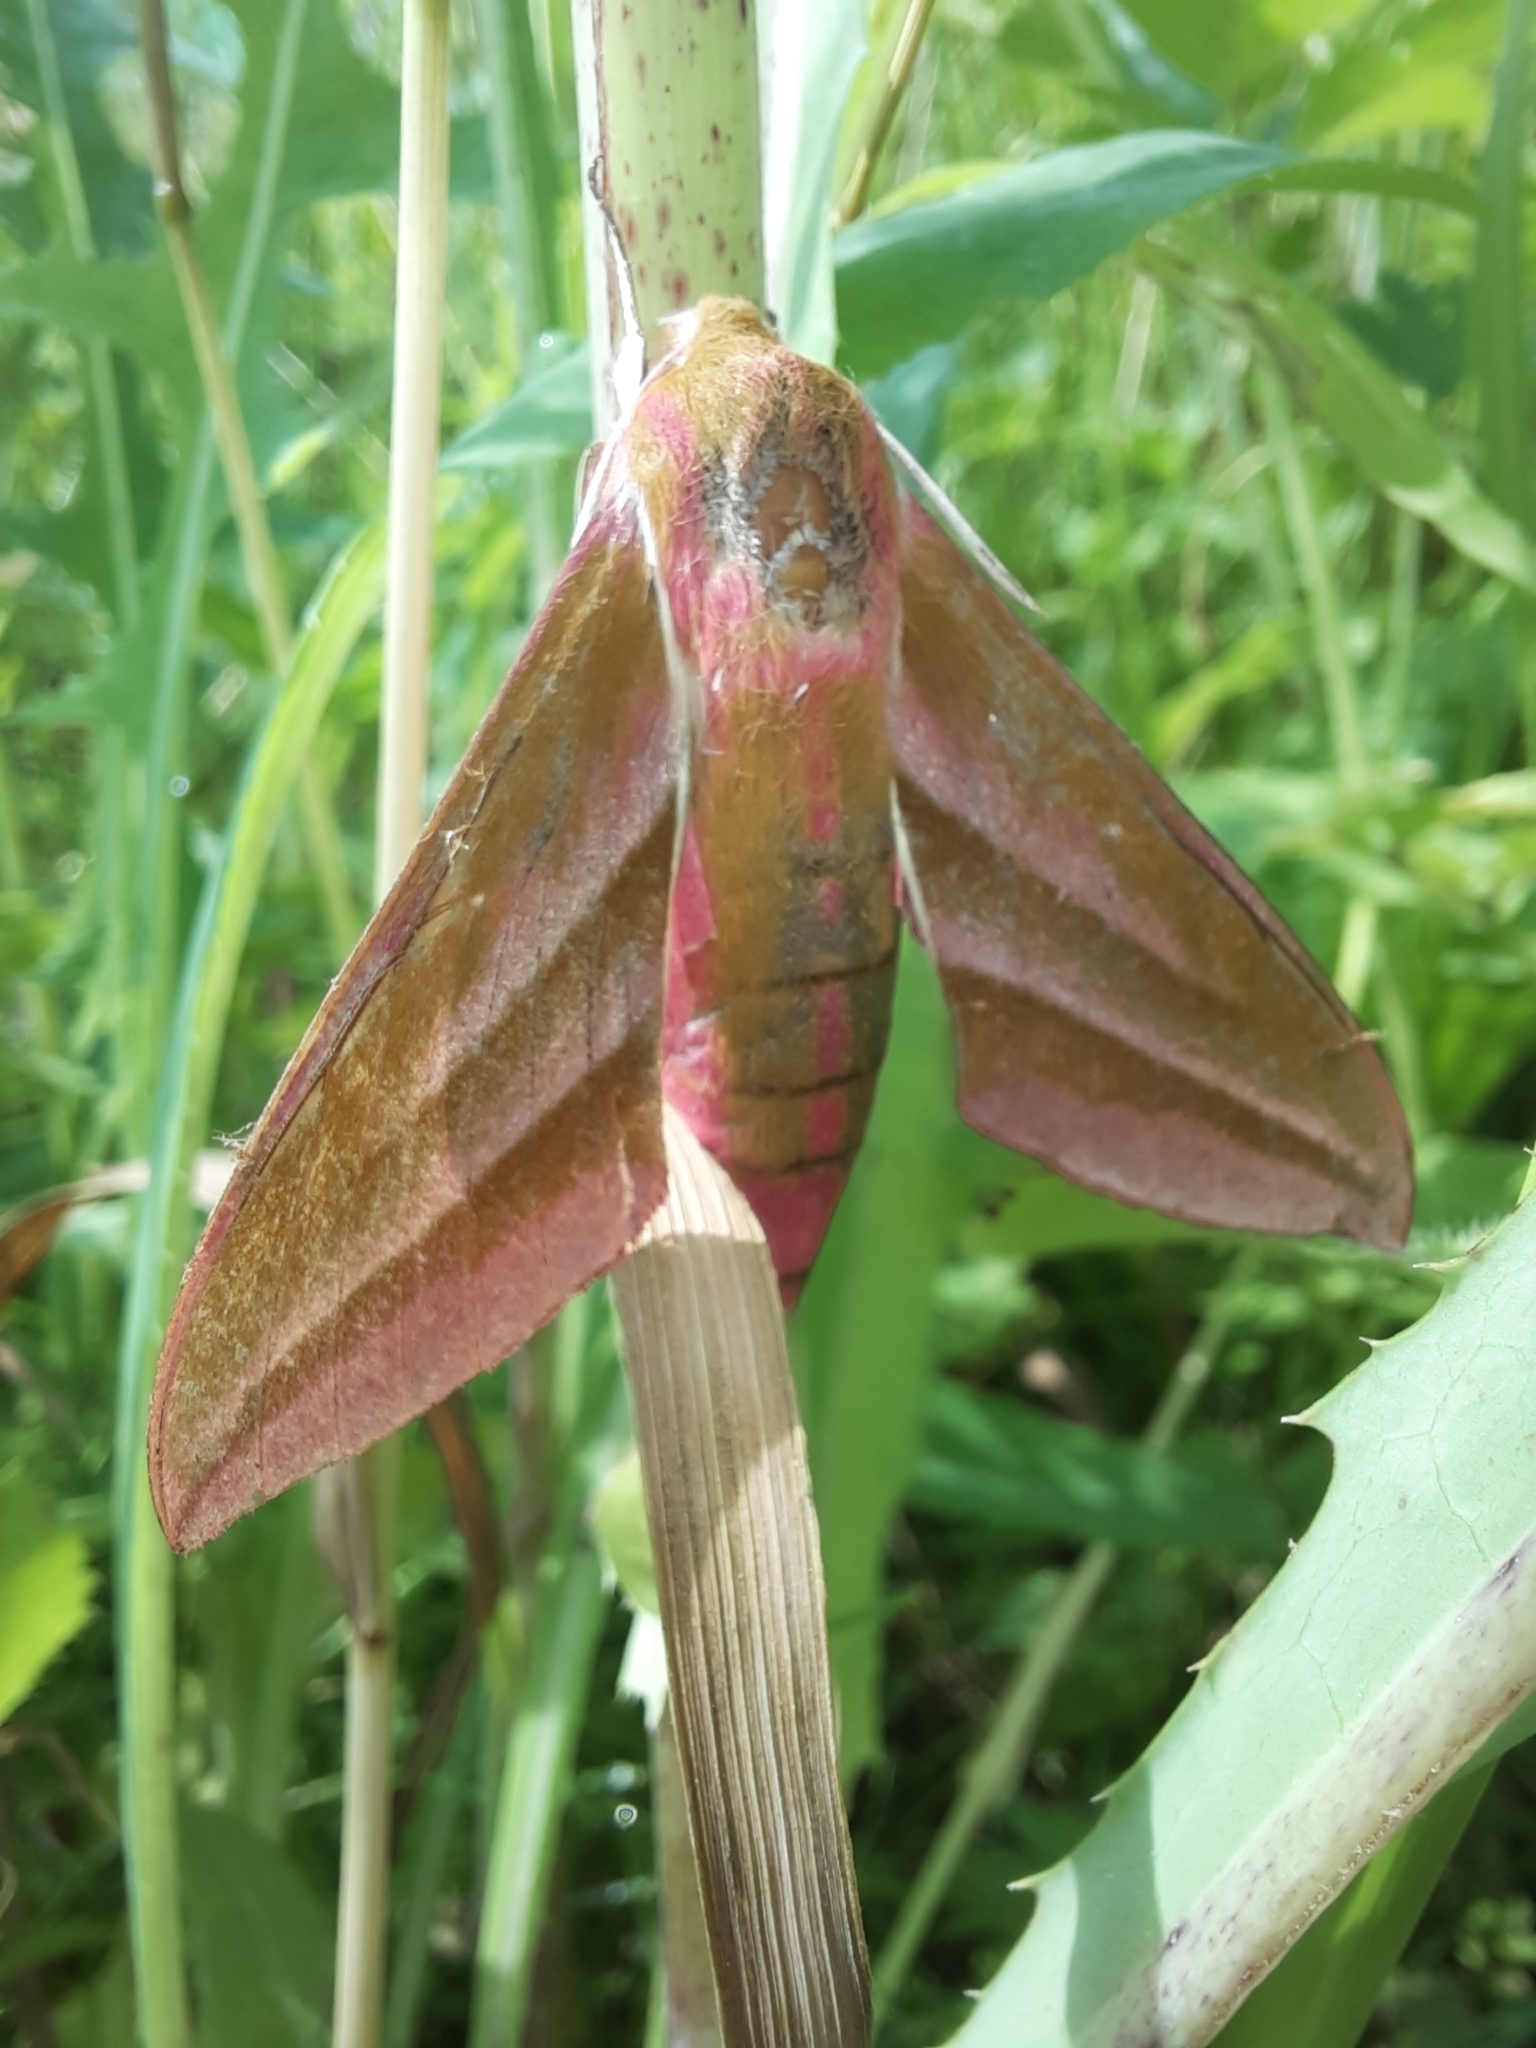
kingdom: Animalia
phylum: Arthropoda
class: Insecta
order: Lepidoptera
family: Sphingidae
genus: Deilephila
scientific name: Deilephila elpenor
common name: Elephant hawk-moth
